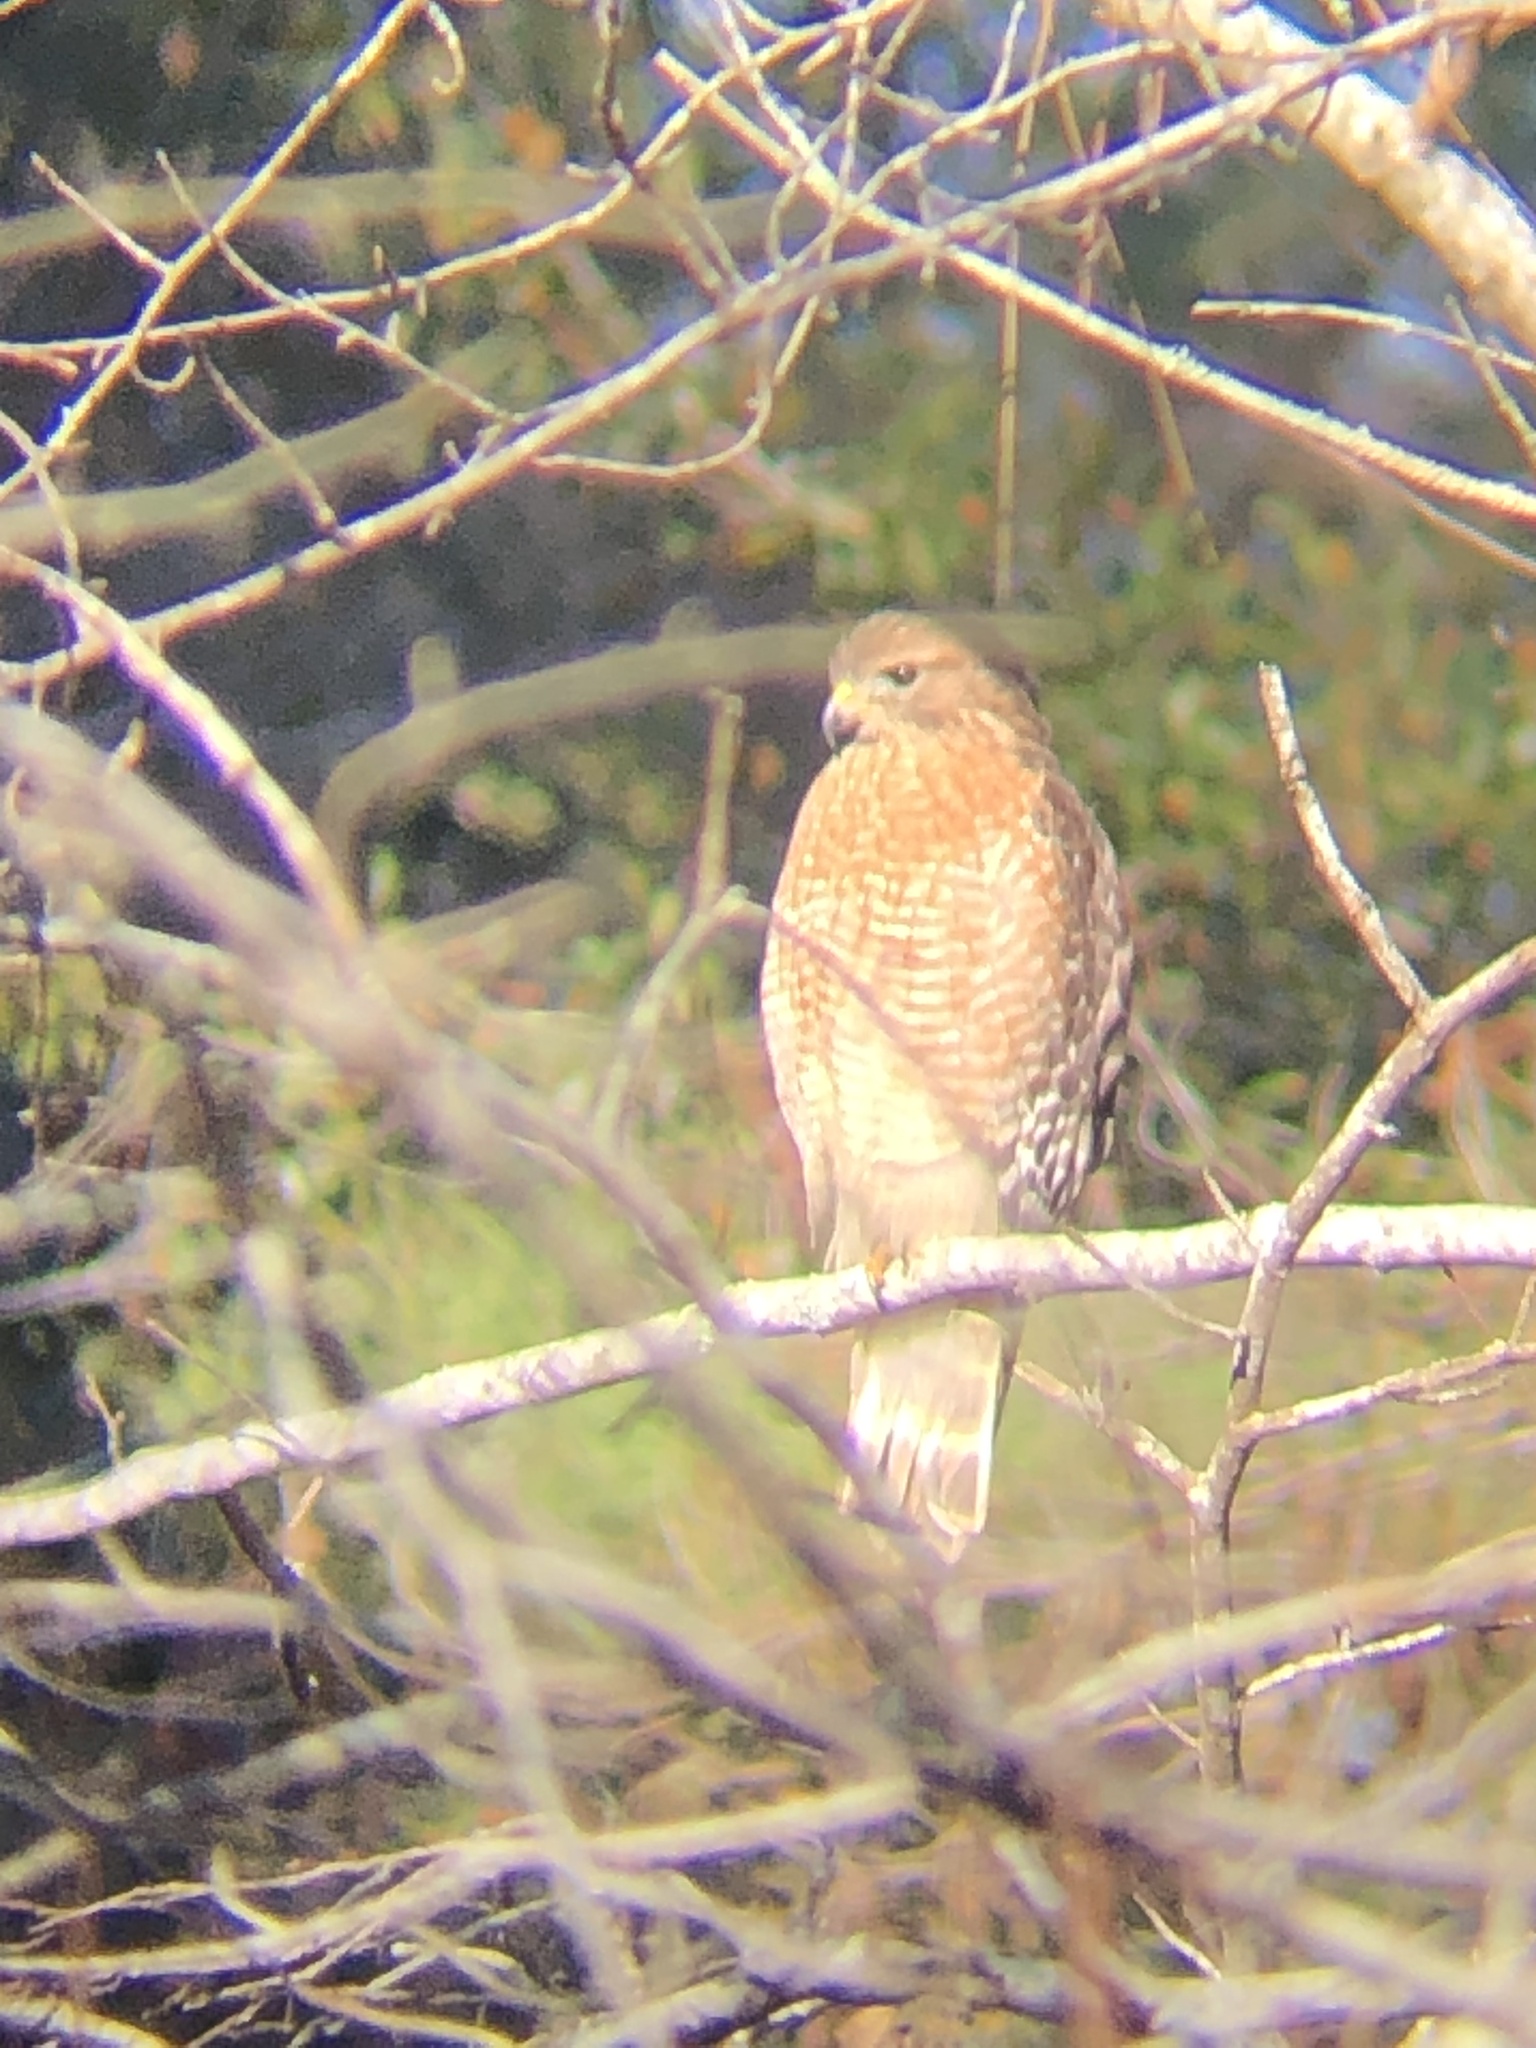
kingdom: Animalia
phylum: Chordata
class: Aves
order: Accipitriformes
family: Accipitridae
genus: Buteo
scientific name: Buteo lineatus
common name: Red-shouldered hawk
